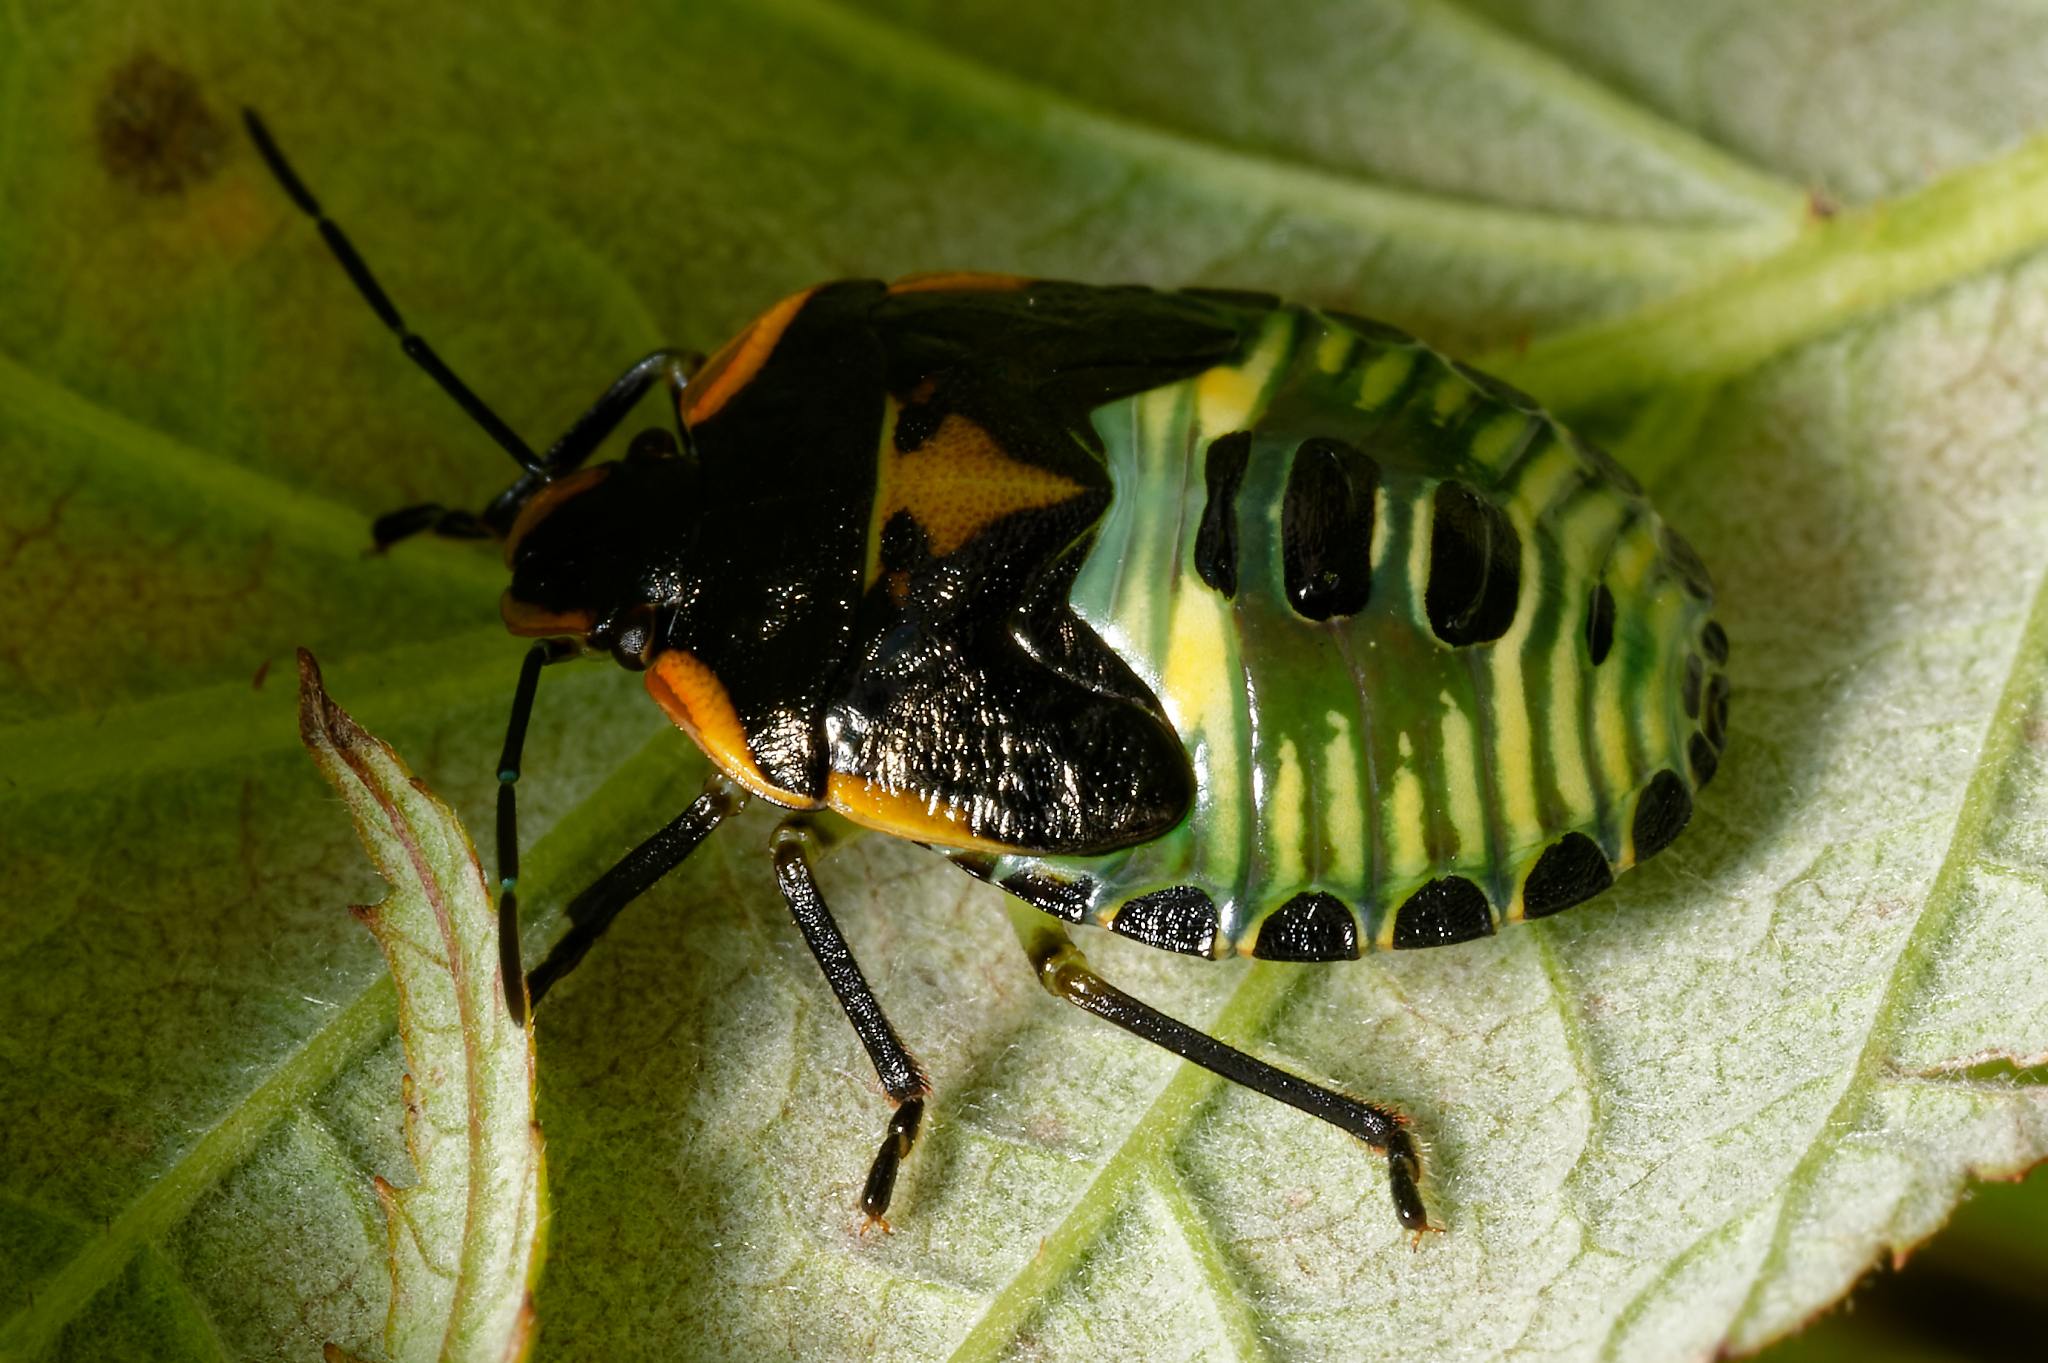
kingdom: Animalia
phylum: Arthropoda
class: Insecta
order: Hemiptera
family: Pentatomidae
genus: Chinavia
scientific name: Chinavia hilaris
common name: Green stink bug
